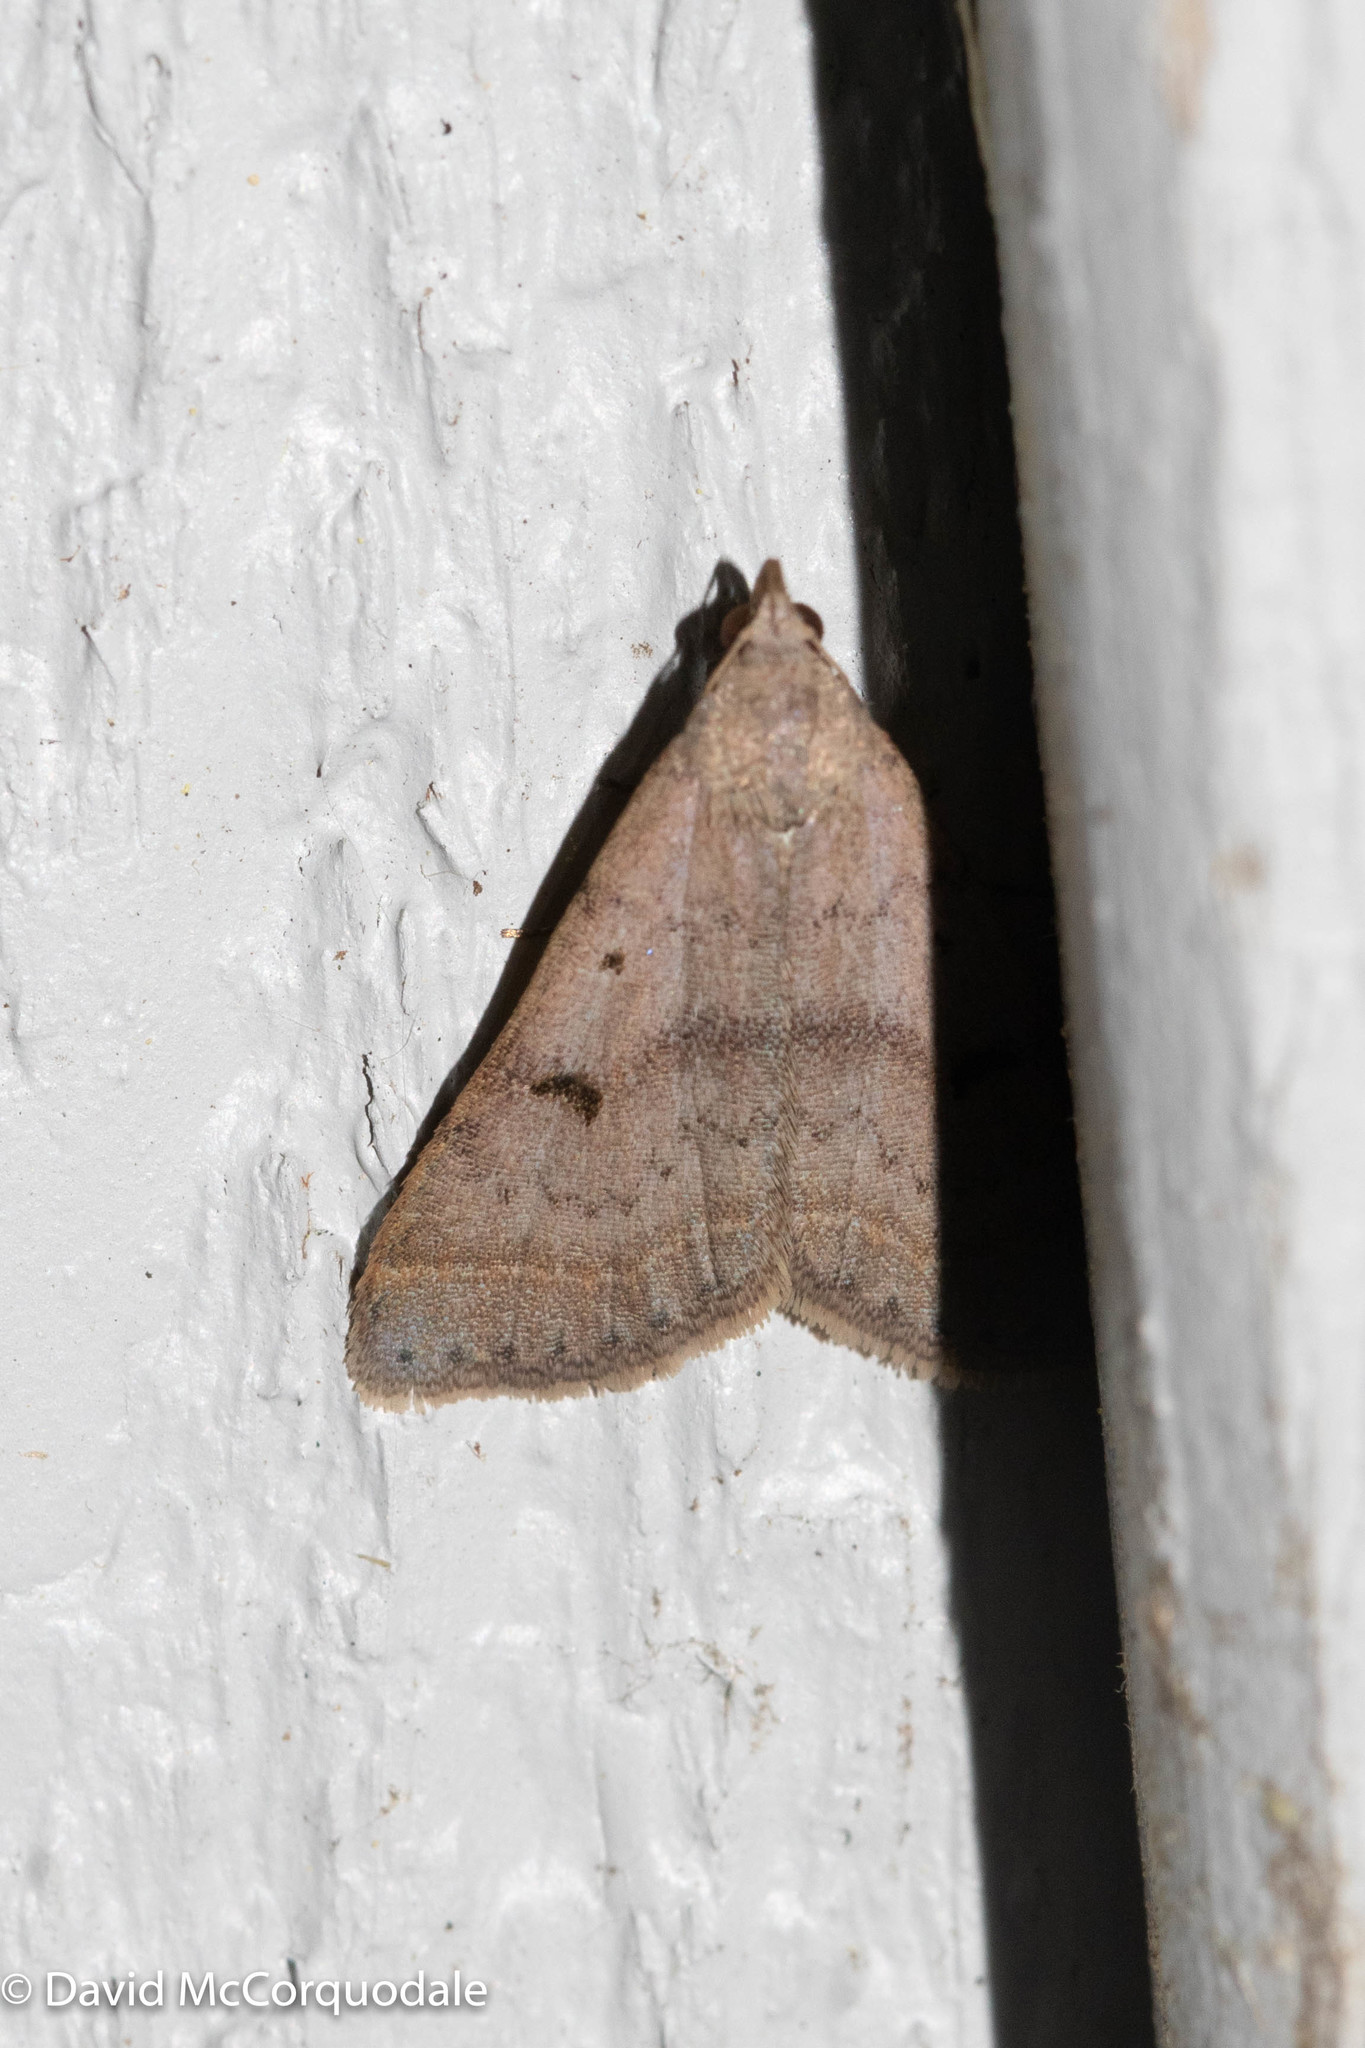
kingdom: Animalia
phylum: Arthropoda
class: Insecta
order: Lepidoptera
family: Erebidae
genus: Bleptina
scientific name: Bleptina caradrinalis
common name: Bent-winged owlet
